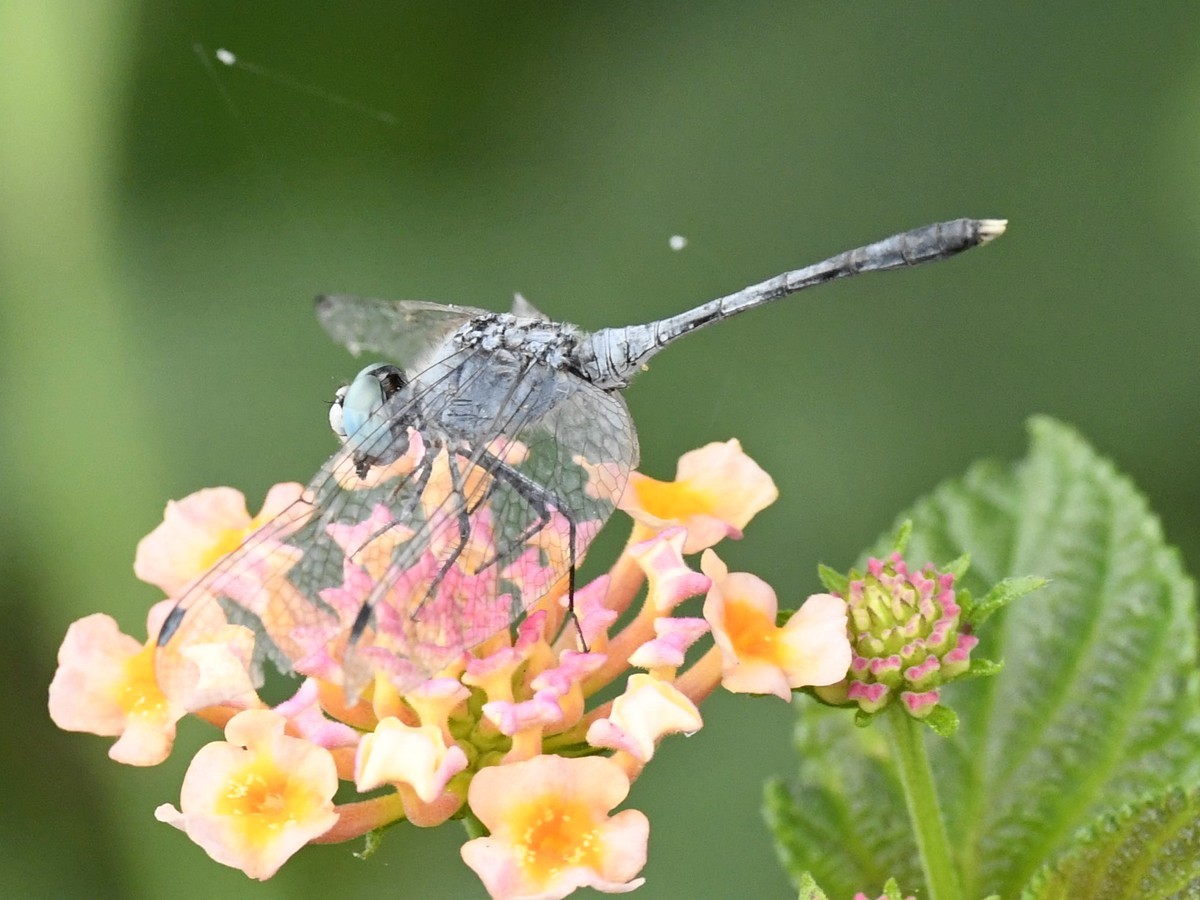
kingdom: Animalia
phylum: Arthropoda
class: Insecta
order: Odonata
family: Libellulidae
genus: Diplacodes
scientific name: Diplacodes trivialis
